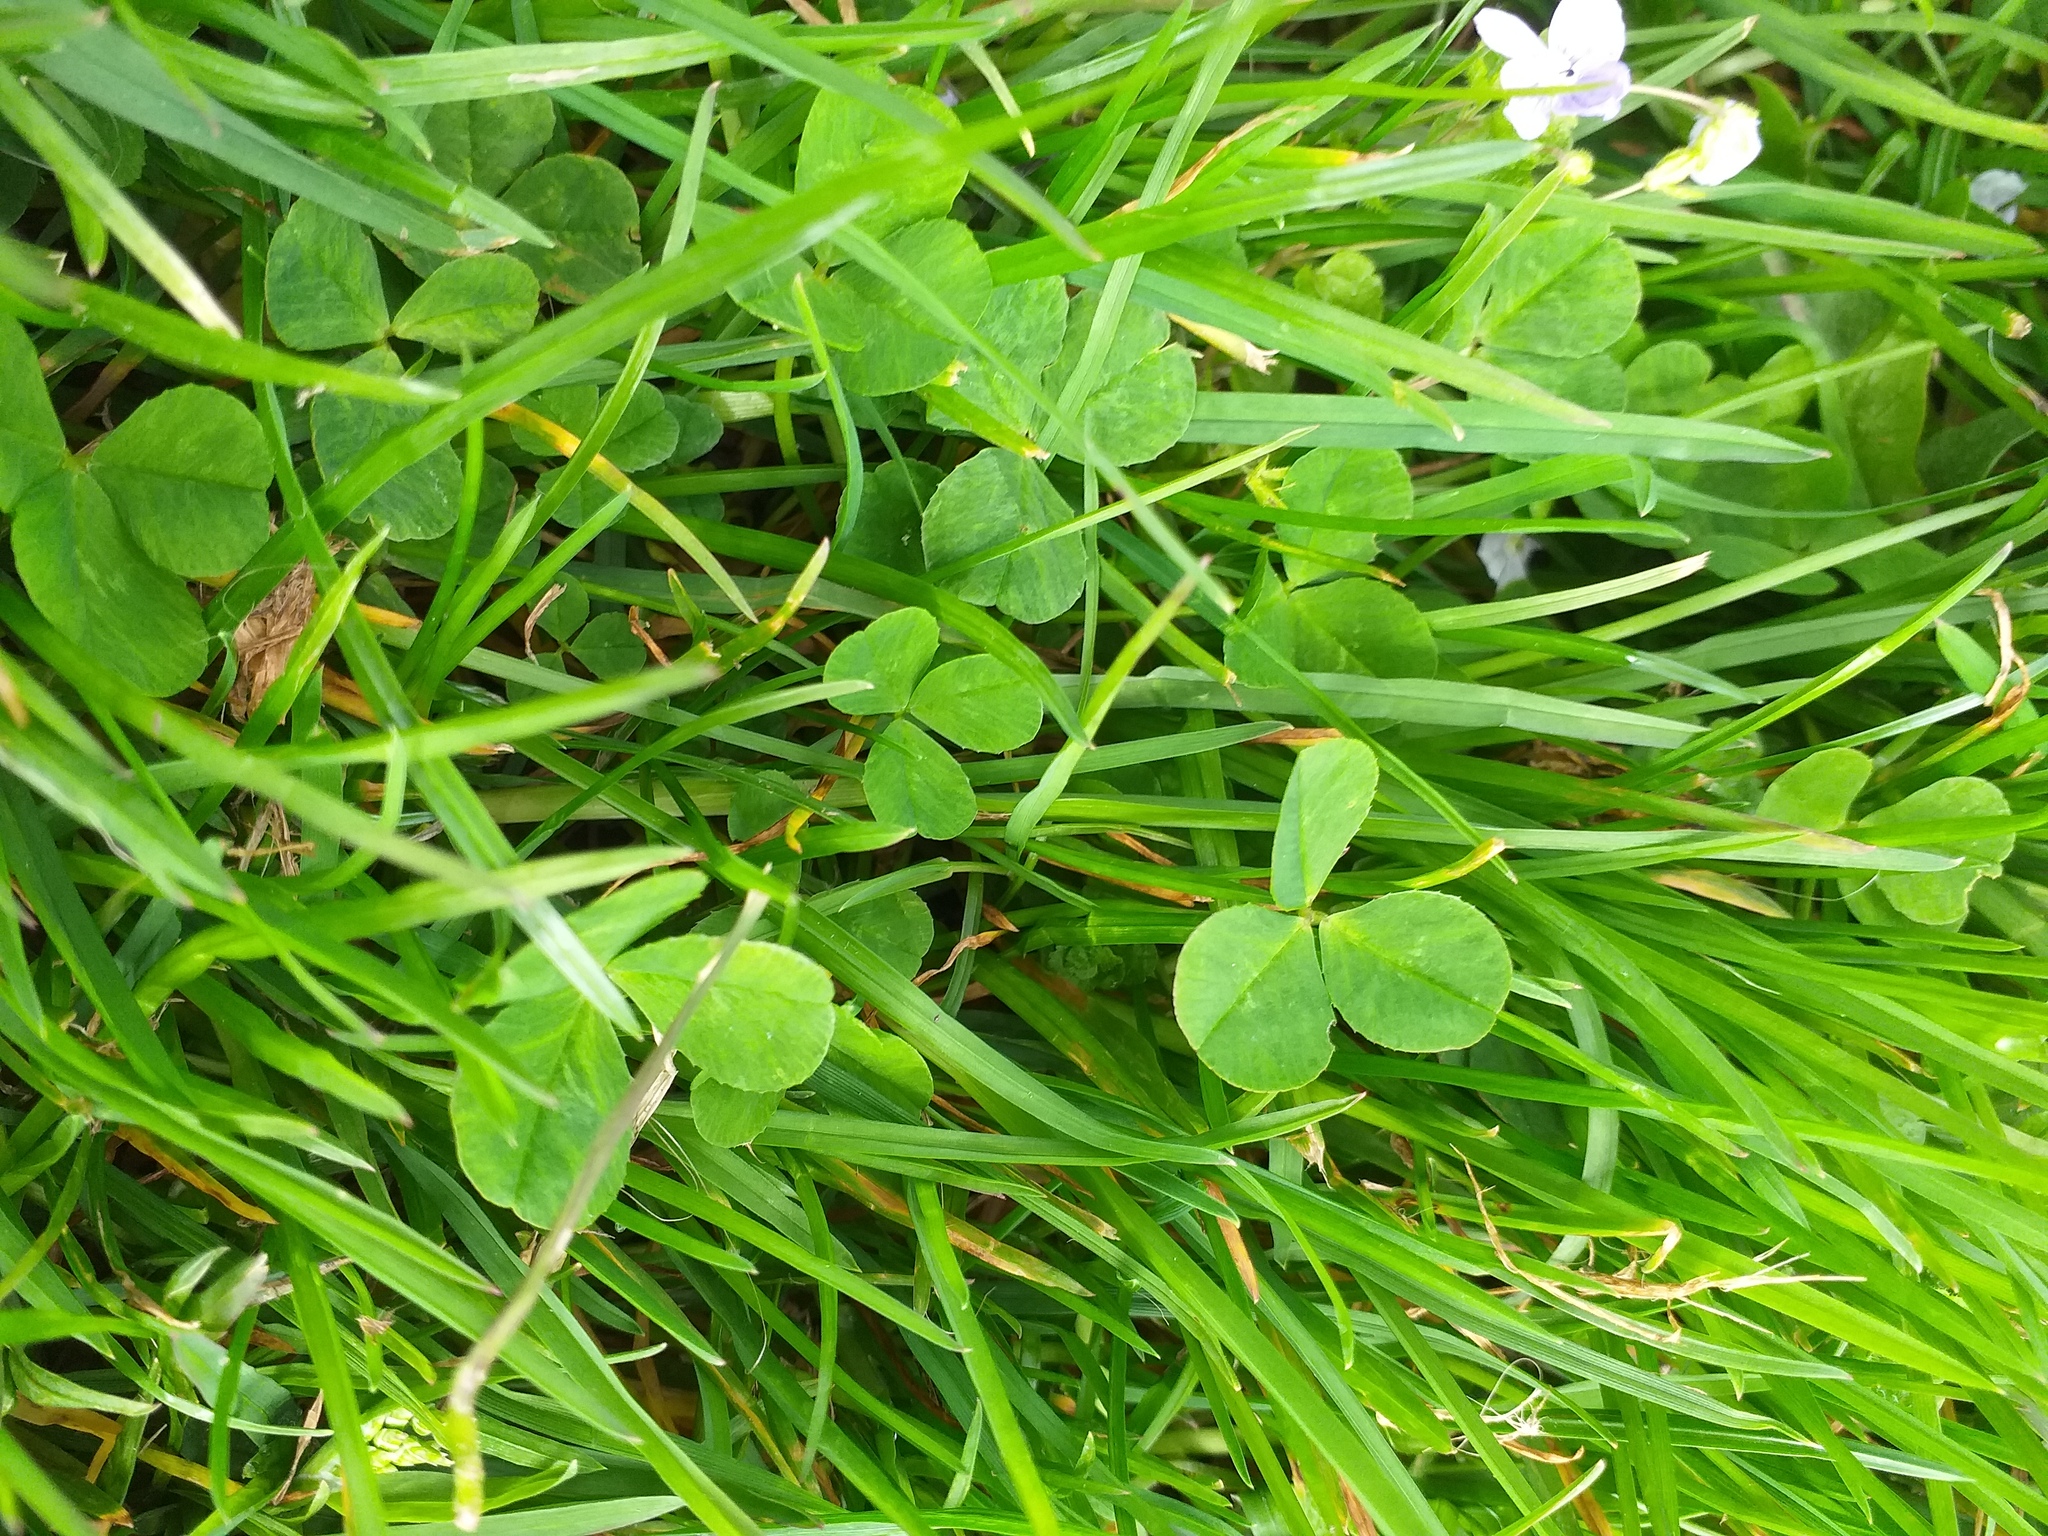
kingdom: Plantae
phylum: Tracheophyta
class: Magnoliopsida
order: Fabales
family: Fabaceae
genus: Trifolium
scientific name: Trifolium repens
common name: White clover
